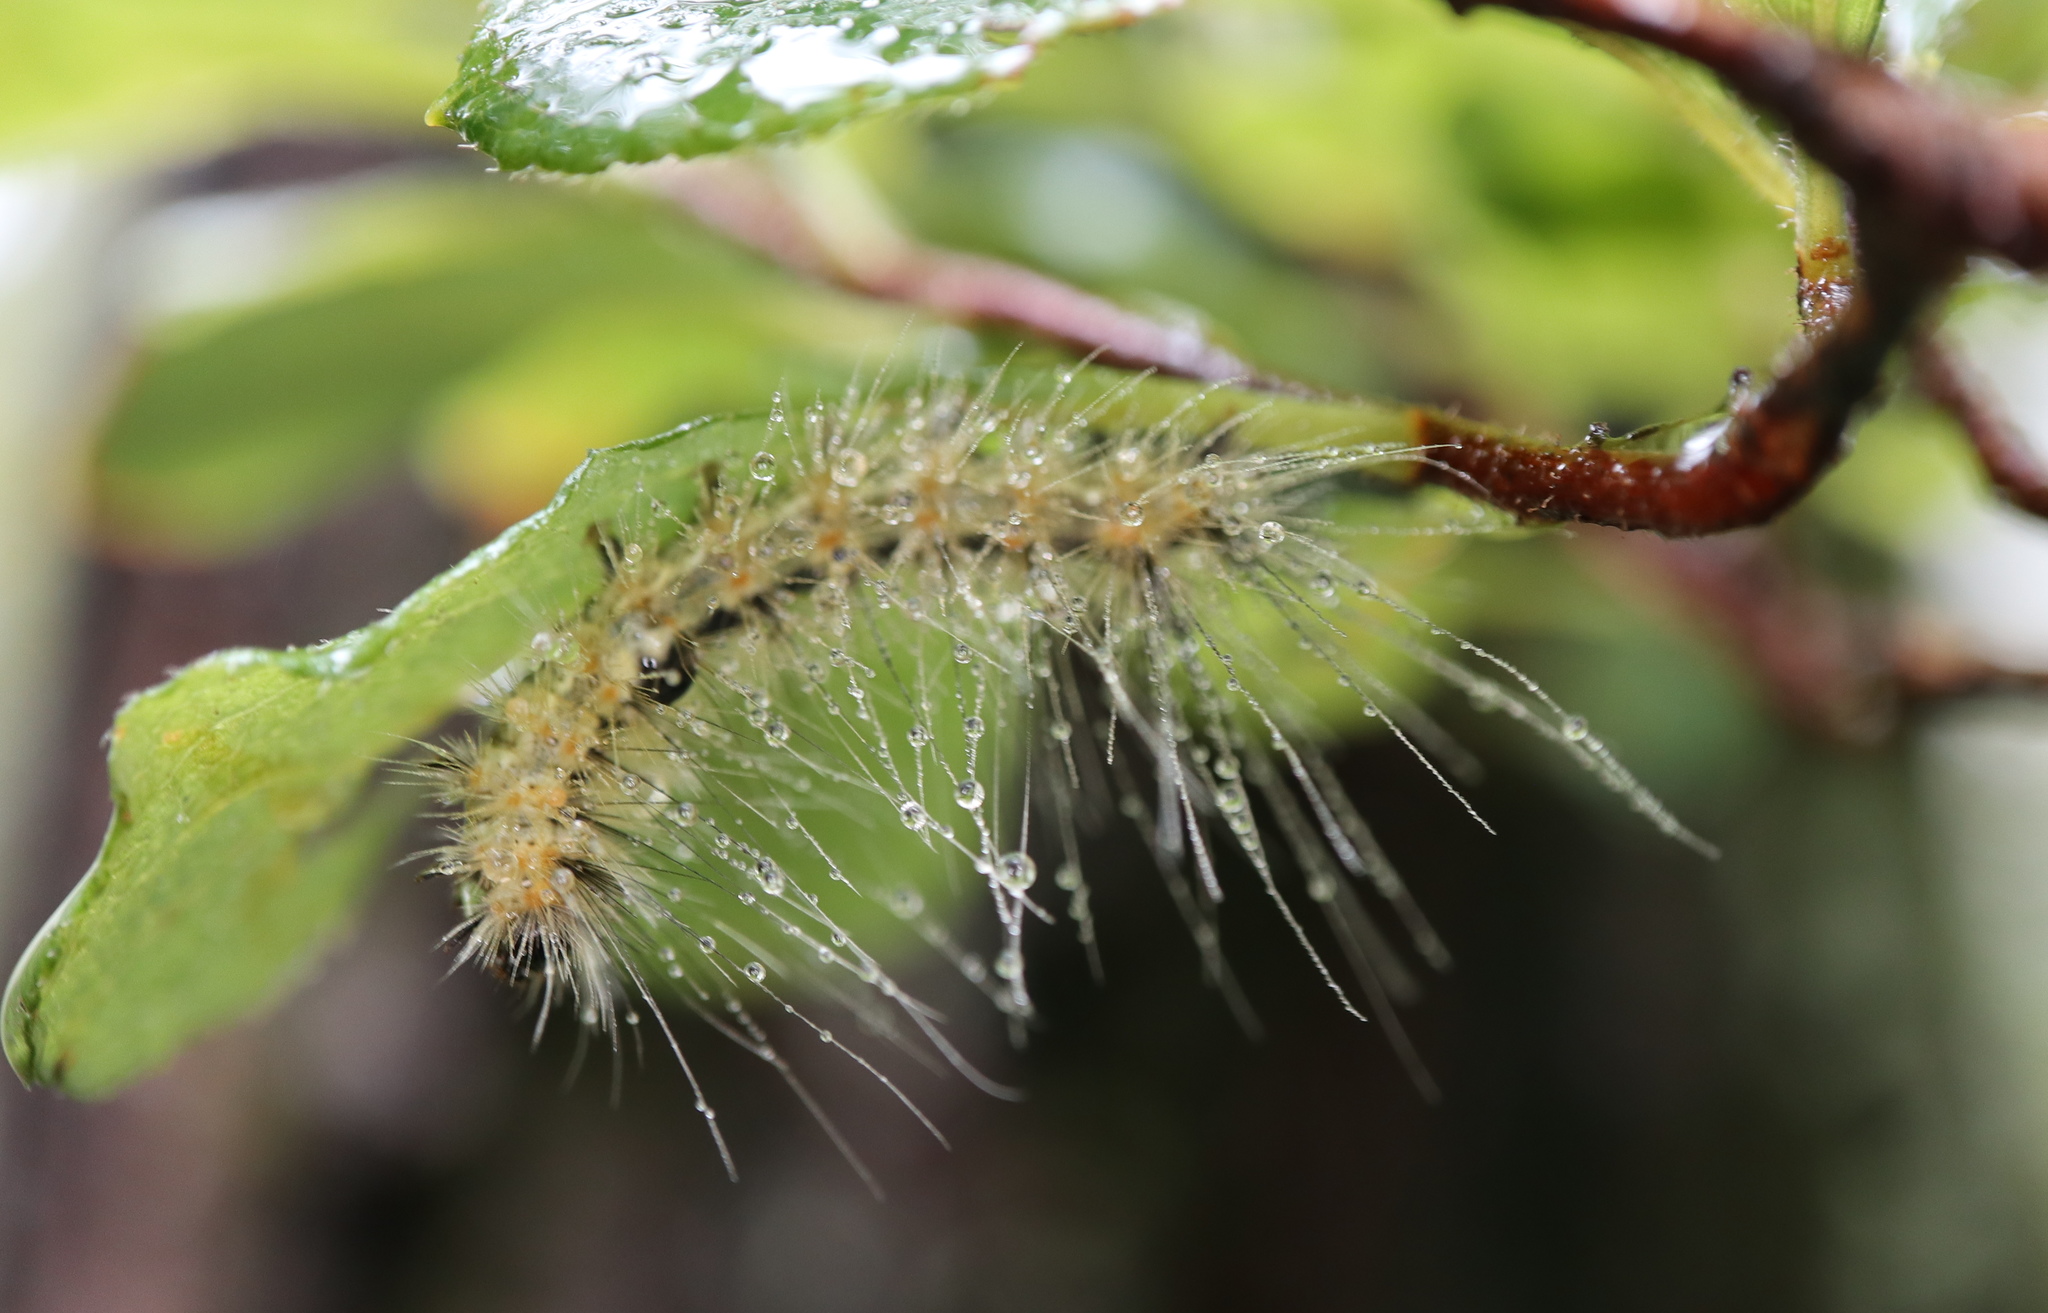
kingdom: Animalia
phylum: Arthropoda
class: Insecta
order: Lepidoptera
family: Erebidae
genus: Hyphantria
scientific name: Hyphantria cunea
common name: American white moth
